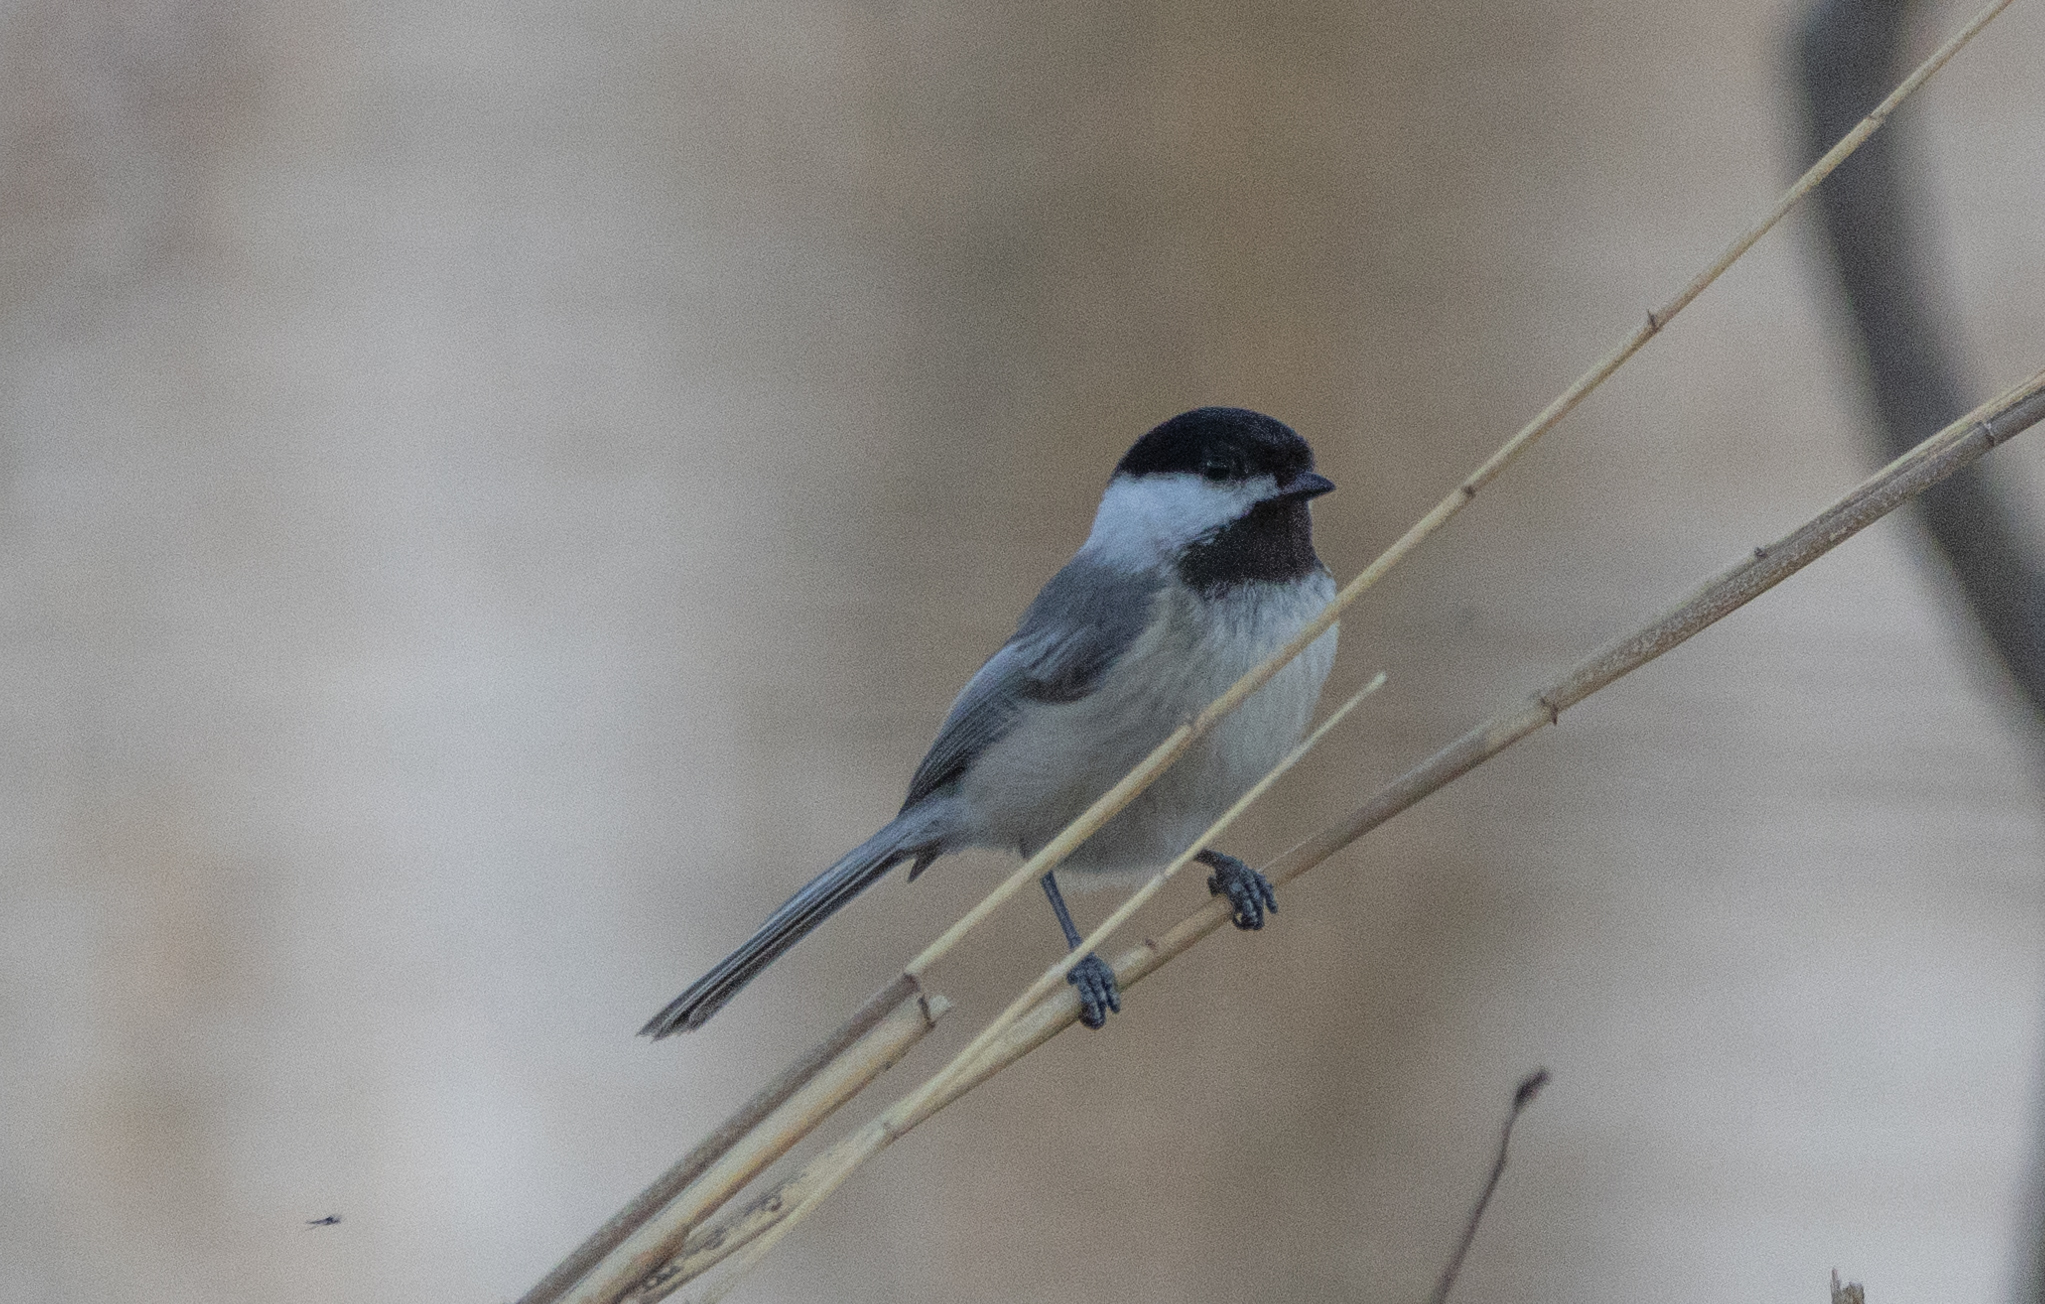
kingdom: Animalia
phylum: Chordata
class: Aves
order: Passeriformes
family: Paridae
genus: Poecile
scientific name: Poecile atricapillus
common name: Black-capped chickadee
